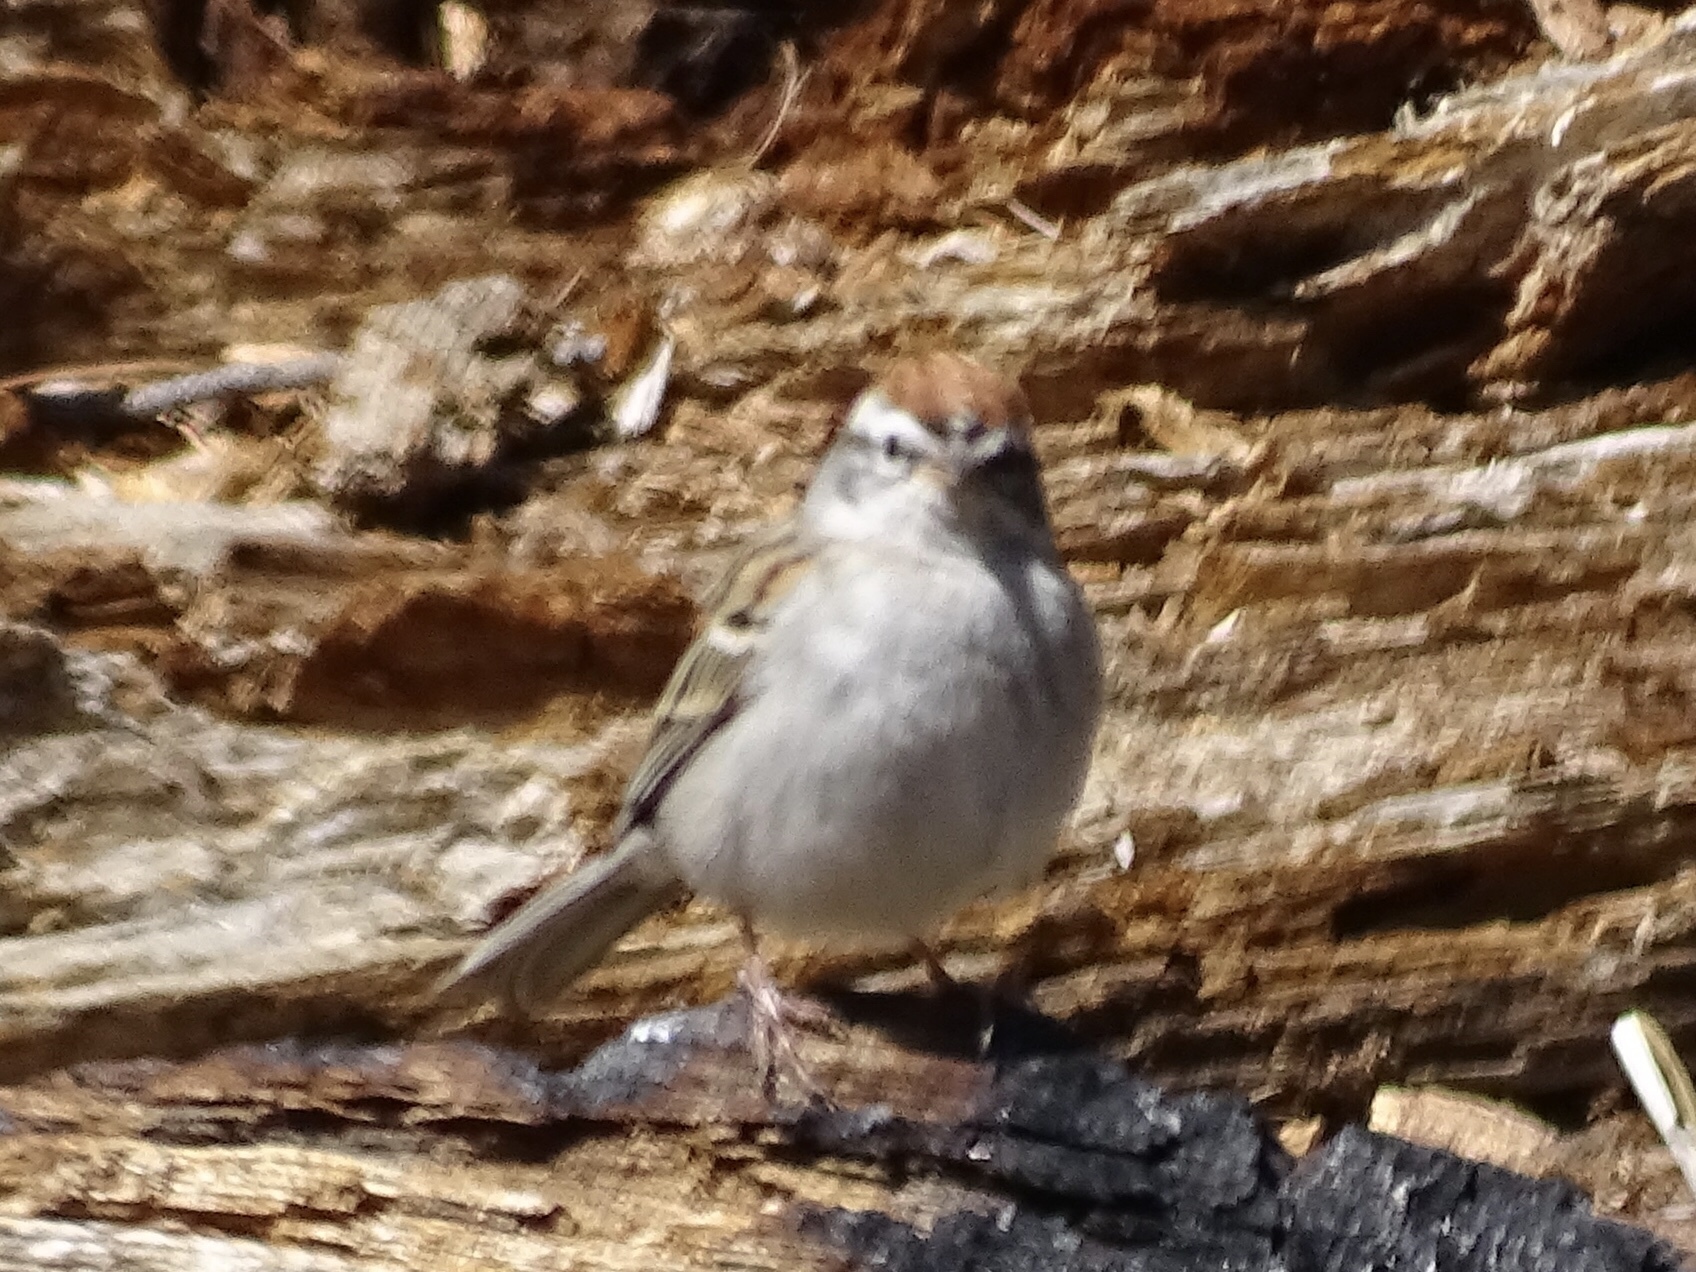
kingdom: Animalia
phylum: Chordata
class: Aves
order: Passeriformes
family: Passerellidae
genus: Spizella
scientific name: Spizella passerina
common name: Chipping sparrow
